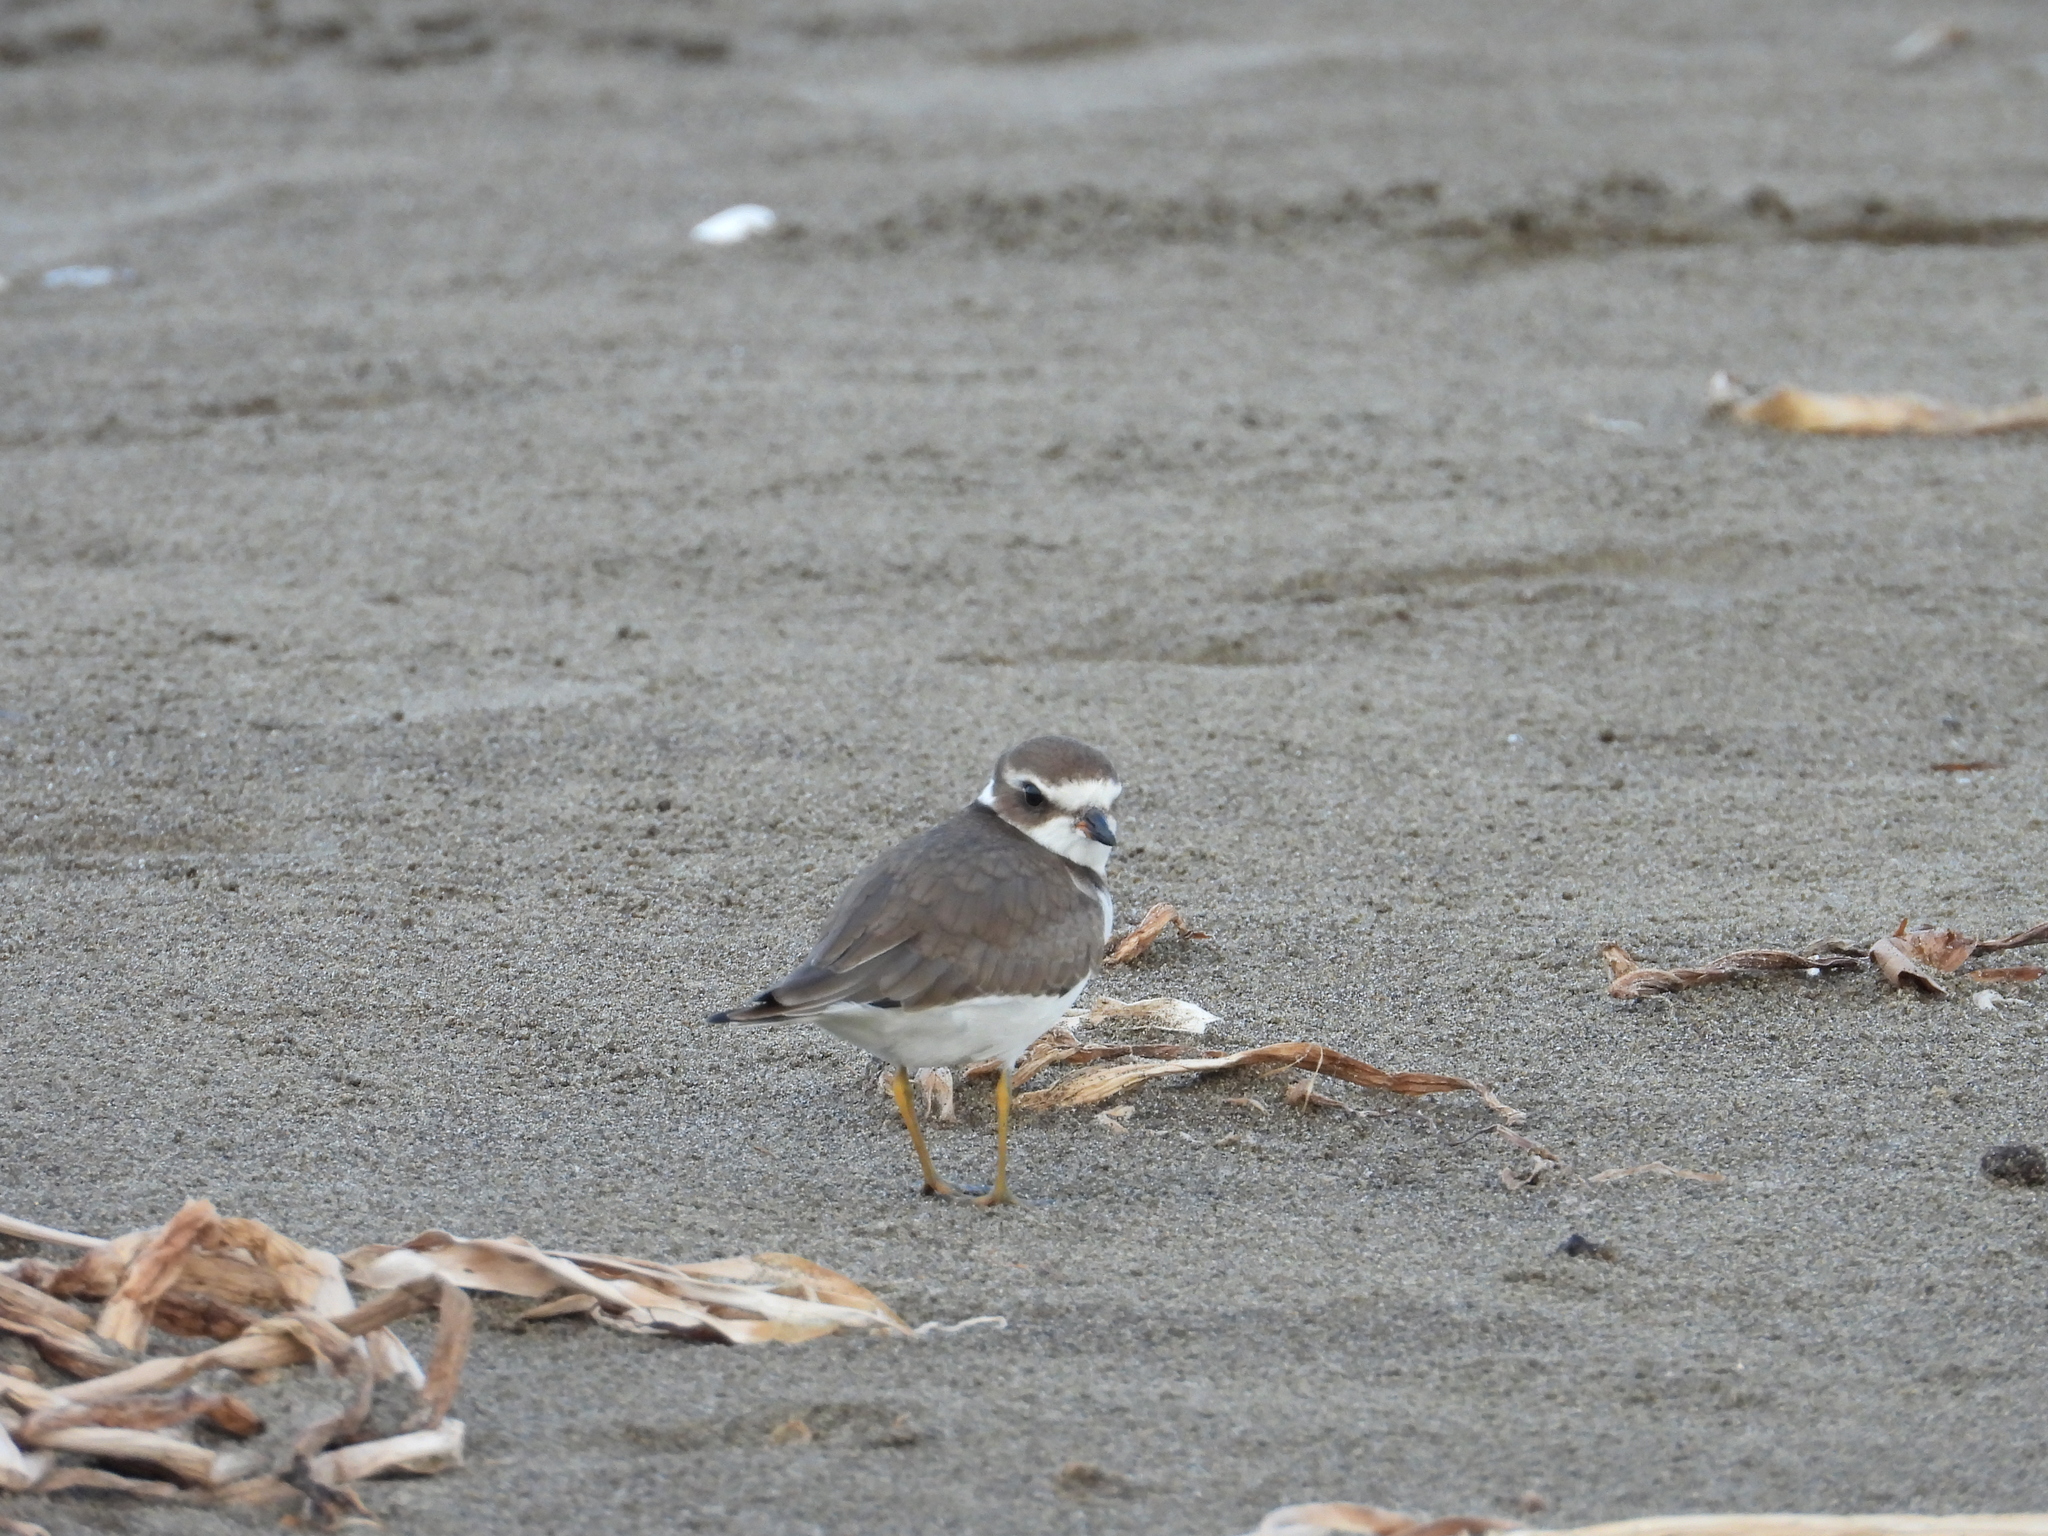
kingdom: Animalia
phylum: Chordata
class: Aves
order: Charadriiformes
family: Charadriidae
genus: Charadrius
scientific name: Charadrius semipalmatus
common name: Semipalmated plover
